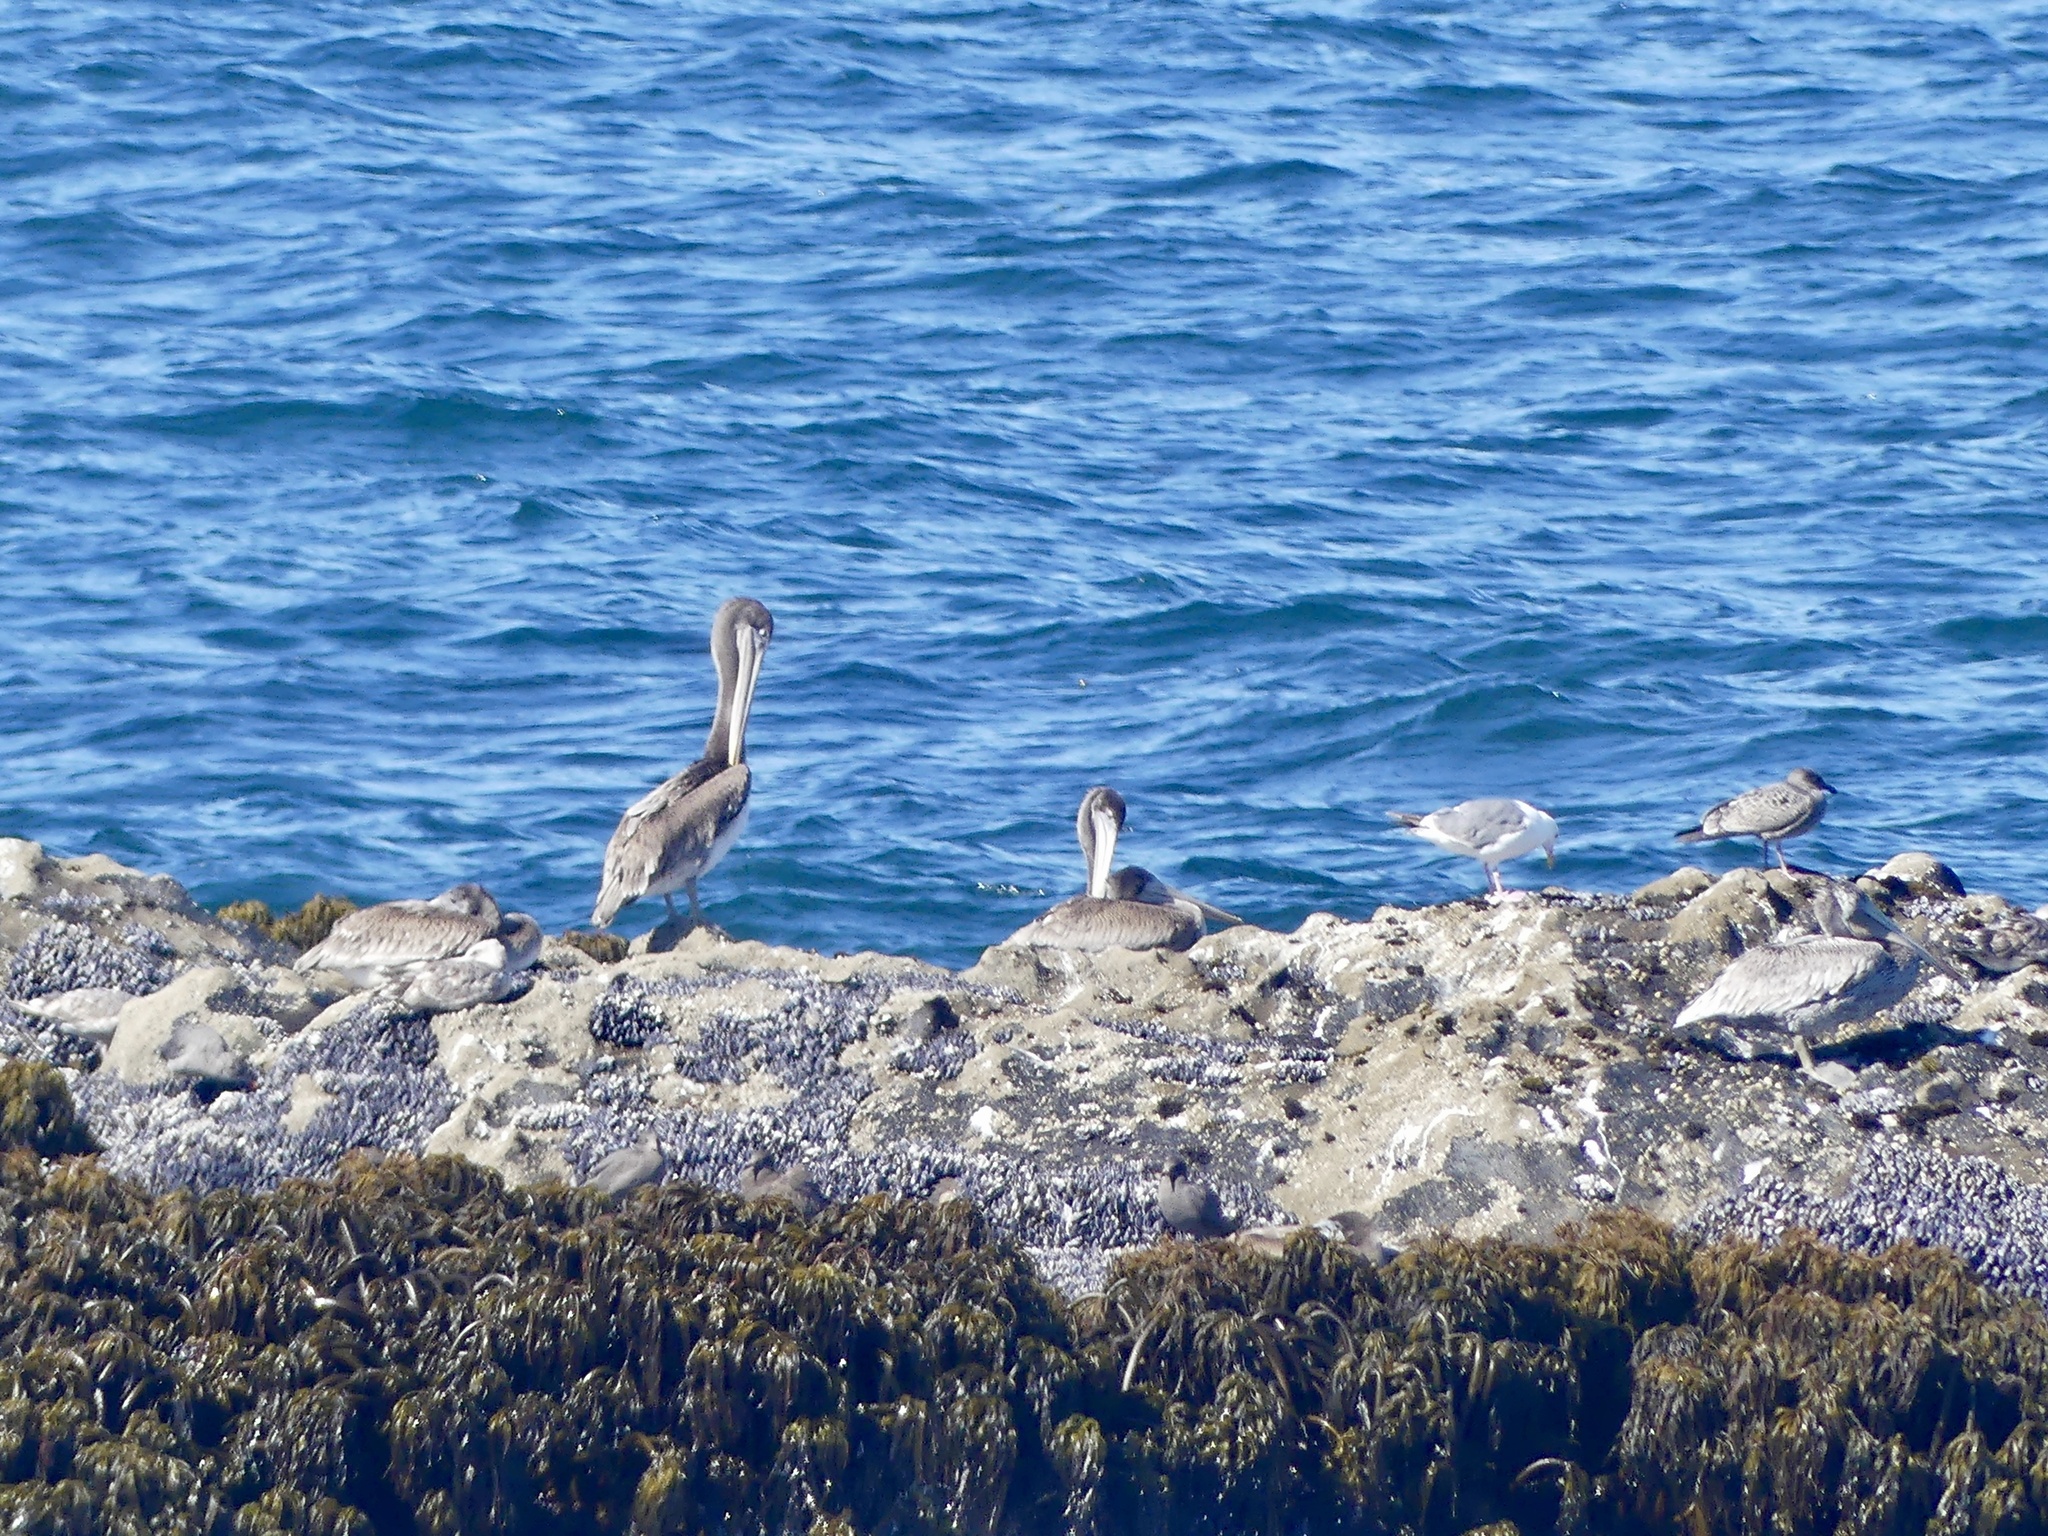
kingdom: Animalia
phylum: Chordata
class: Aves
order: Pelecaniformes
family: Pelecanidae
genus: Pelecanus
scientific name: Pelecanus occidentalis
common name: Brown pelican
